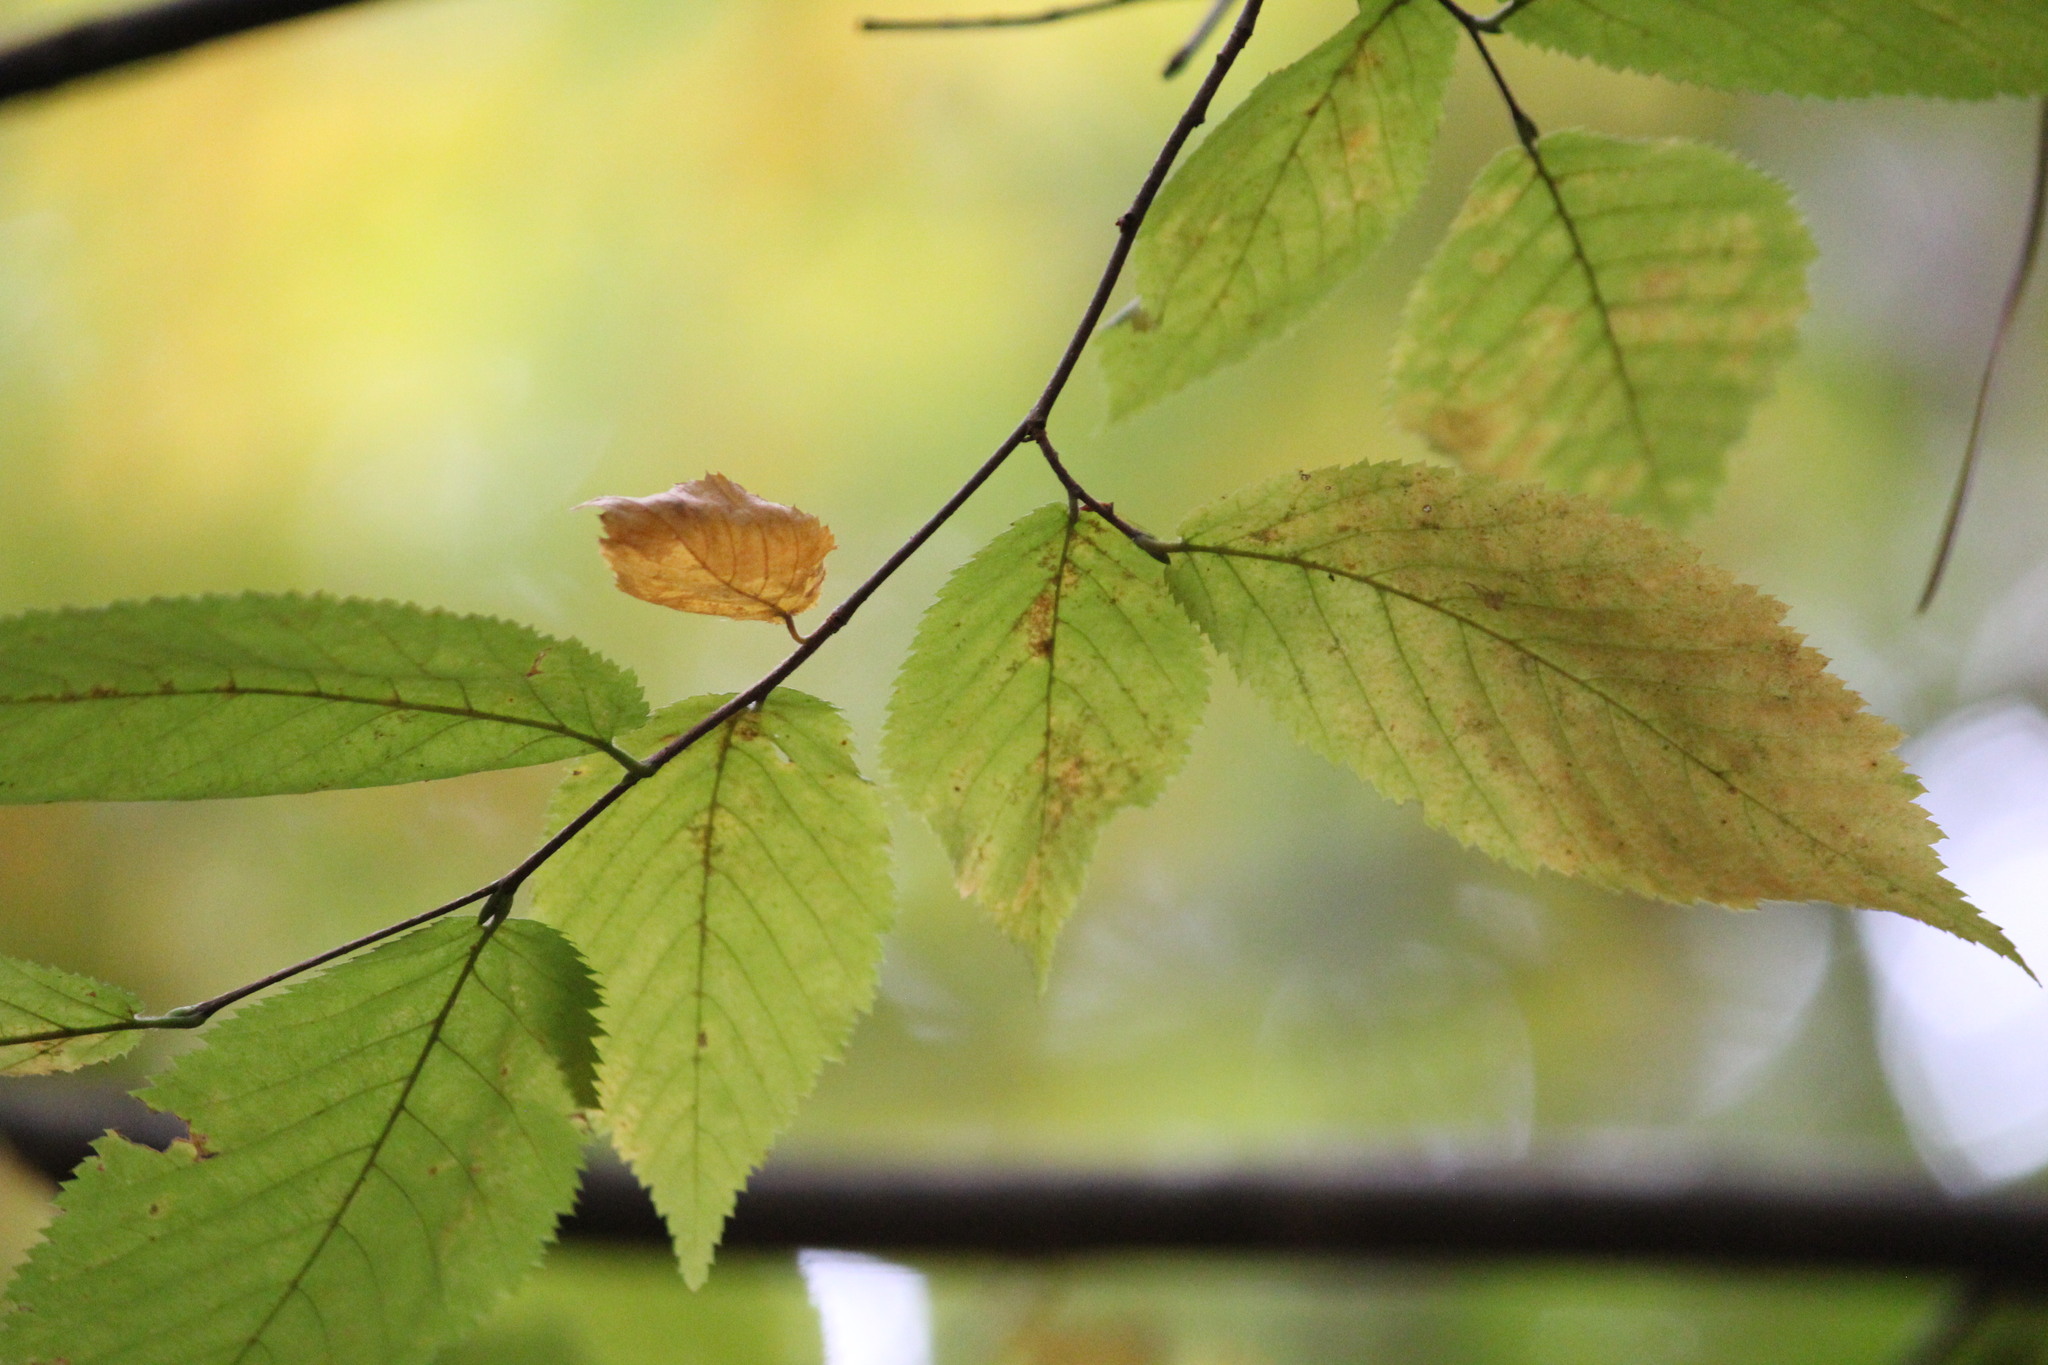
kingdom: Plantae
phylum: Tracheophyta
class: Magnoliopsida
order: Fagales
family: Betulaceae
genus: Ostrya
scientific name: Ostrya virginiana
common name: Ironwood
